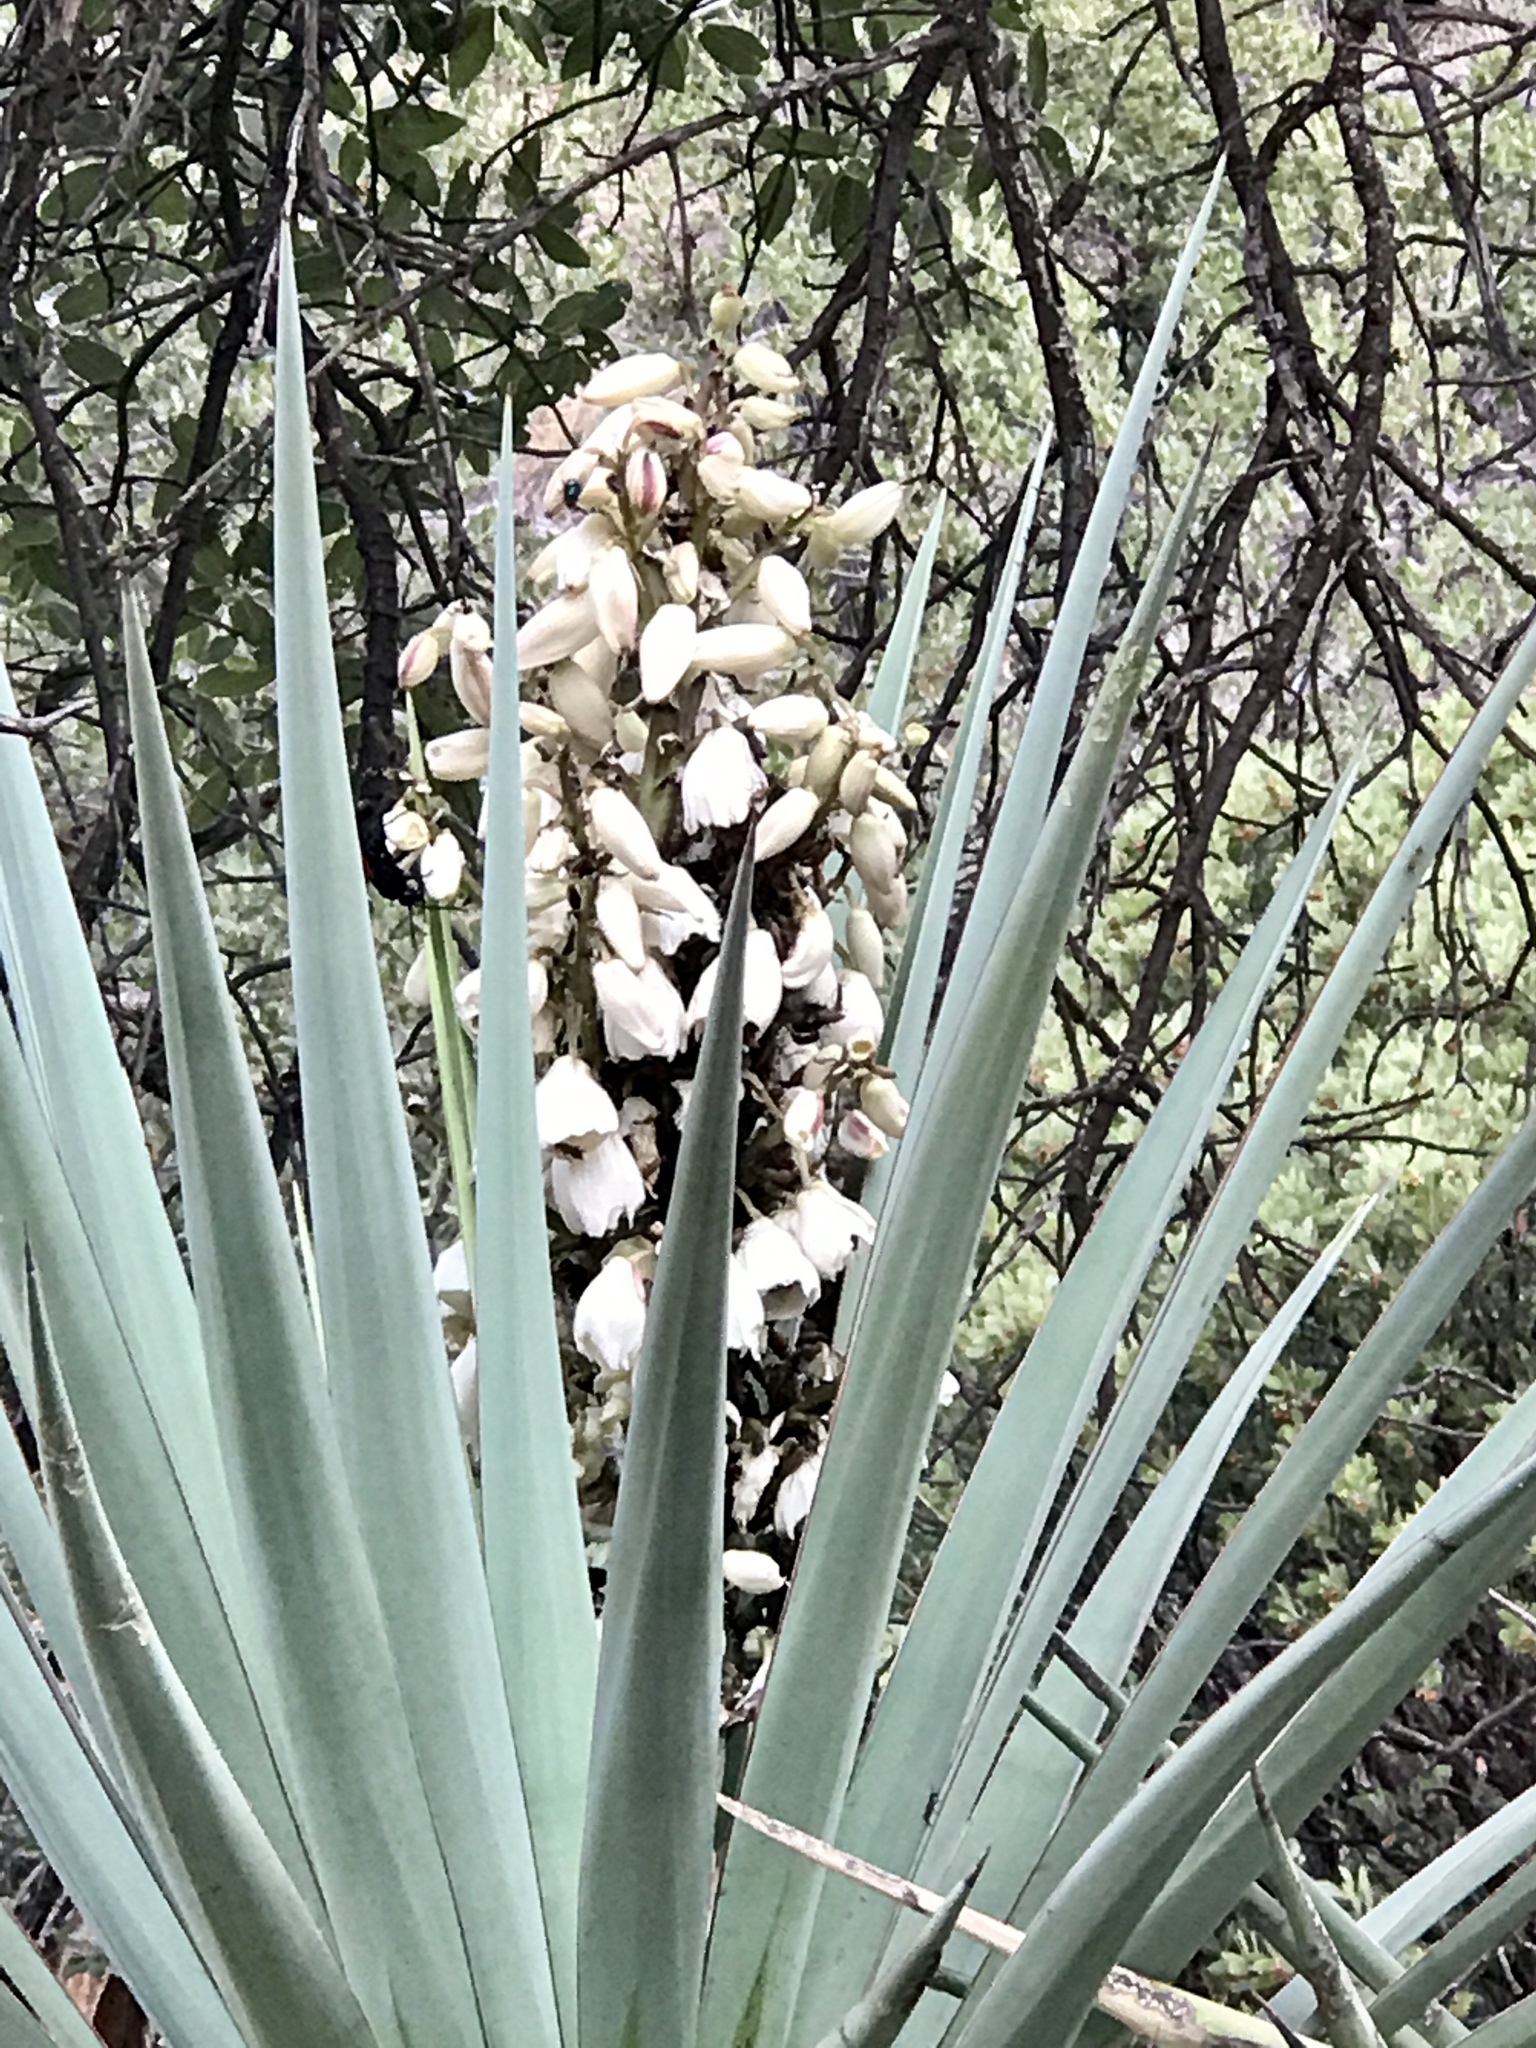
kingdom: Plantae
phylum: Tracheophyta
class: Liliopsida
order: Asparagales
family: Asparagaceae
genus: Yucca
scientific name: Yucca madrensis
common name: Hoary yucca
